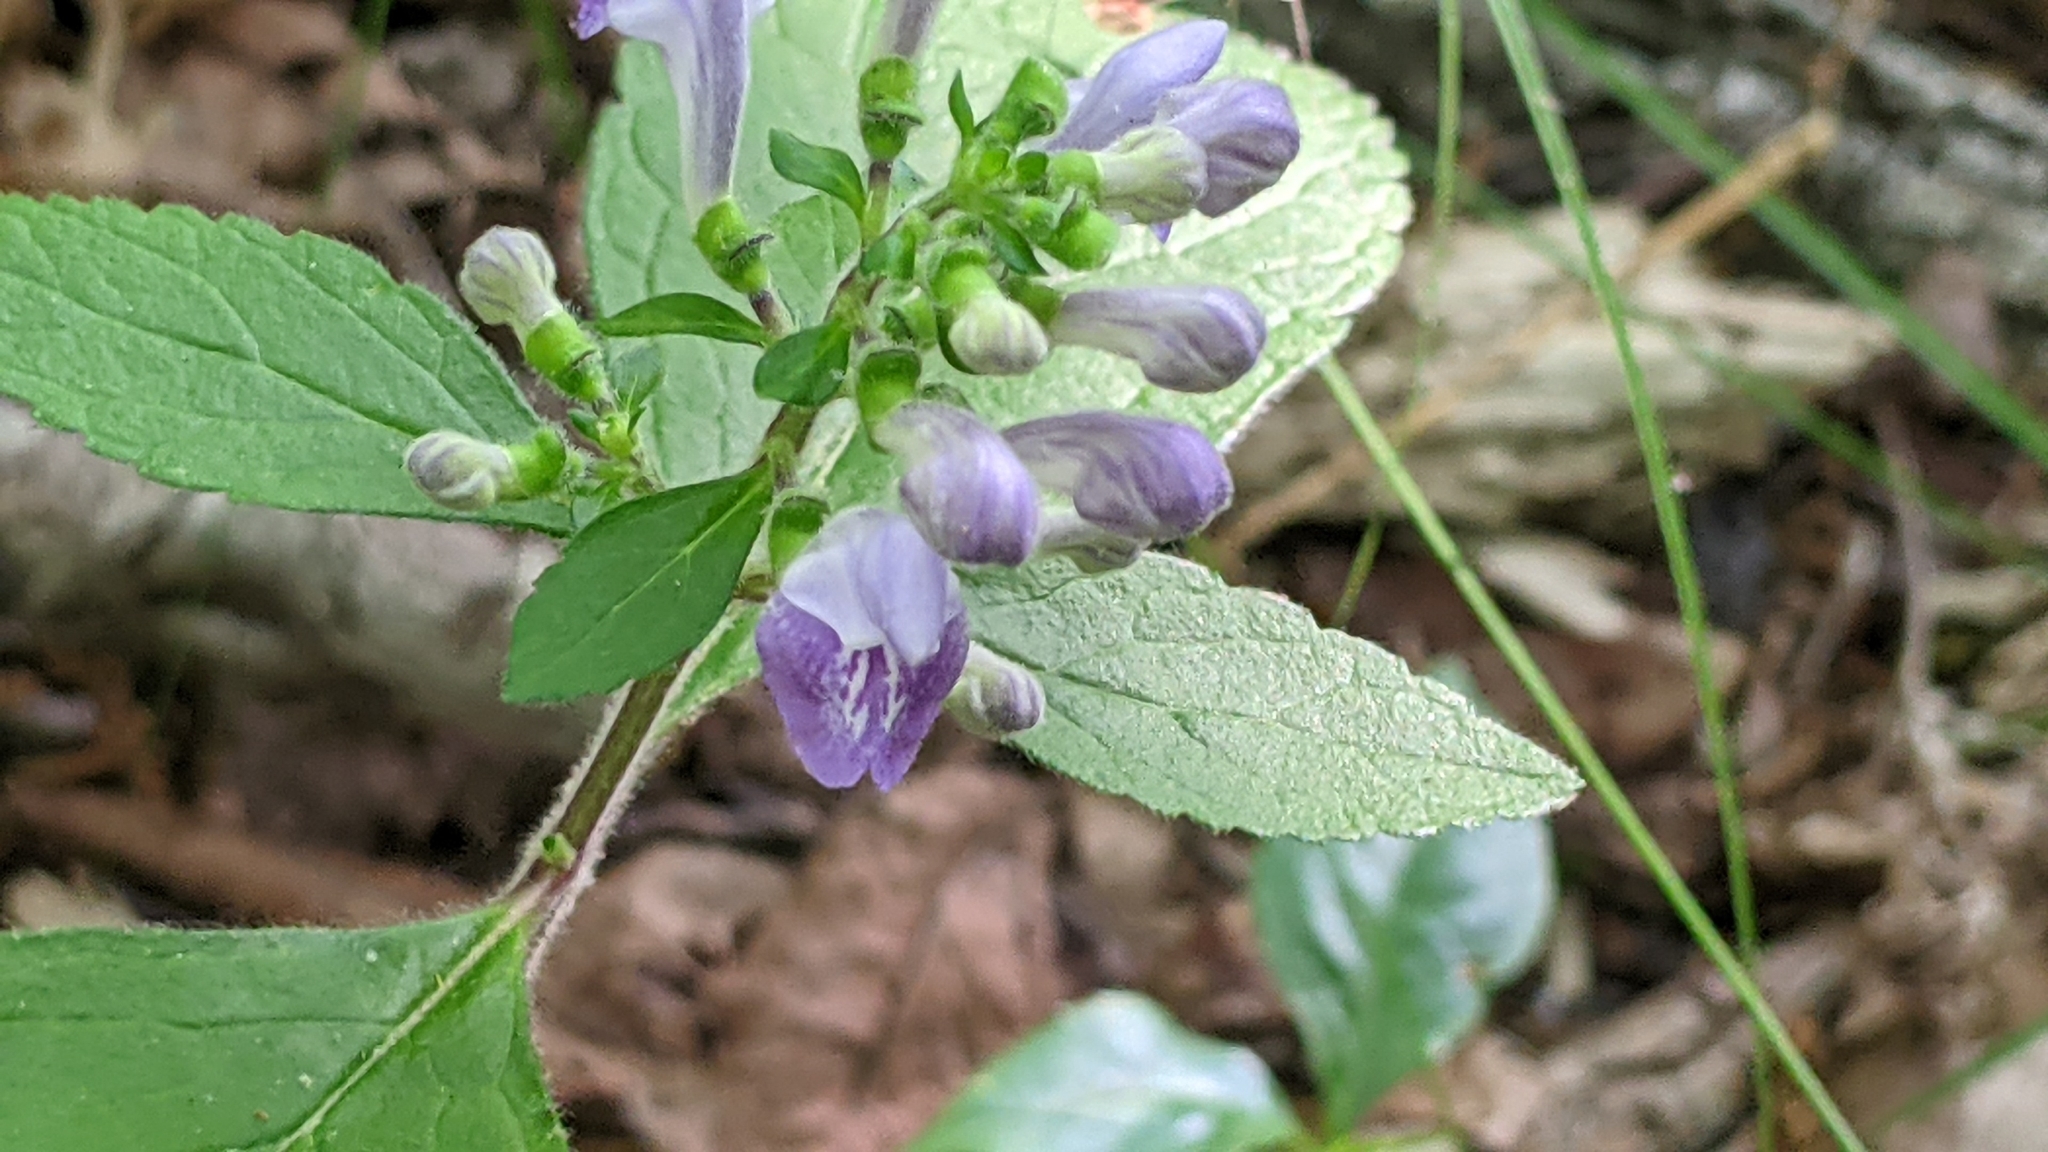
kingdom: Plantae
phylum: Tracheophyta
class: Magnoliopsida
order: Lamiales
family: Lamiaceae
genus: Scutellaria
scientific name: Scutellaria elliptica
